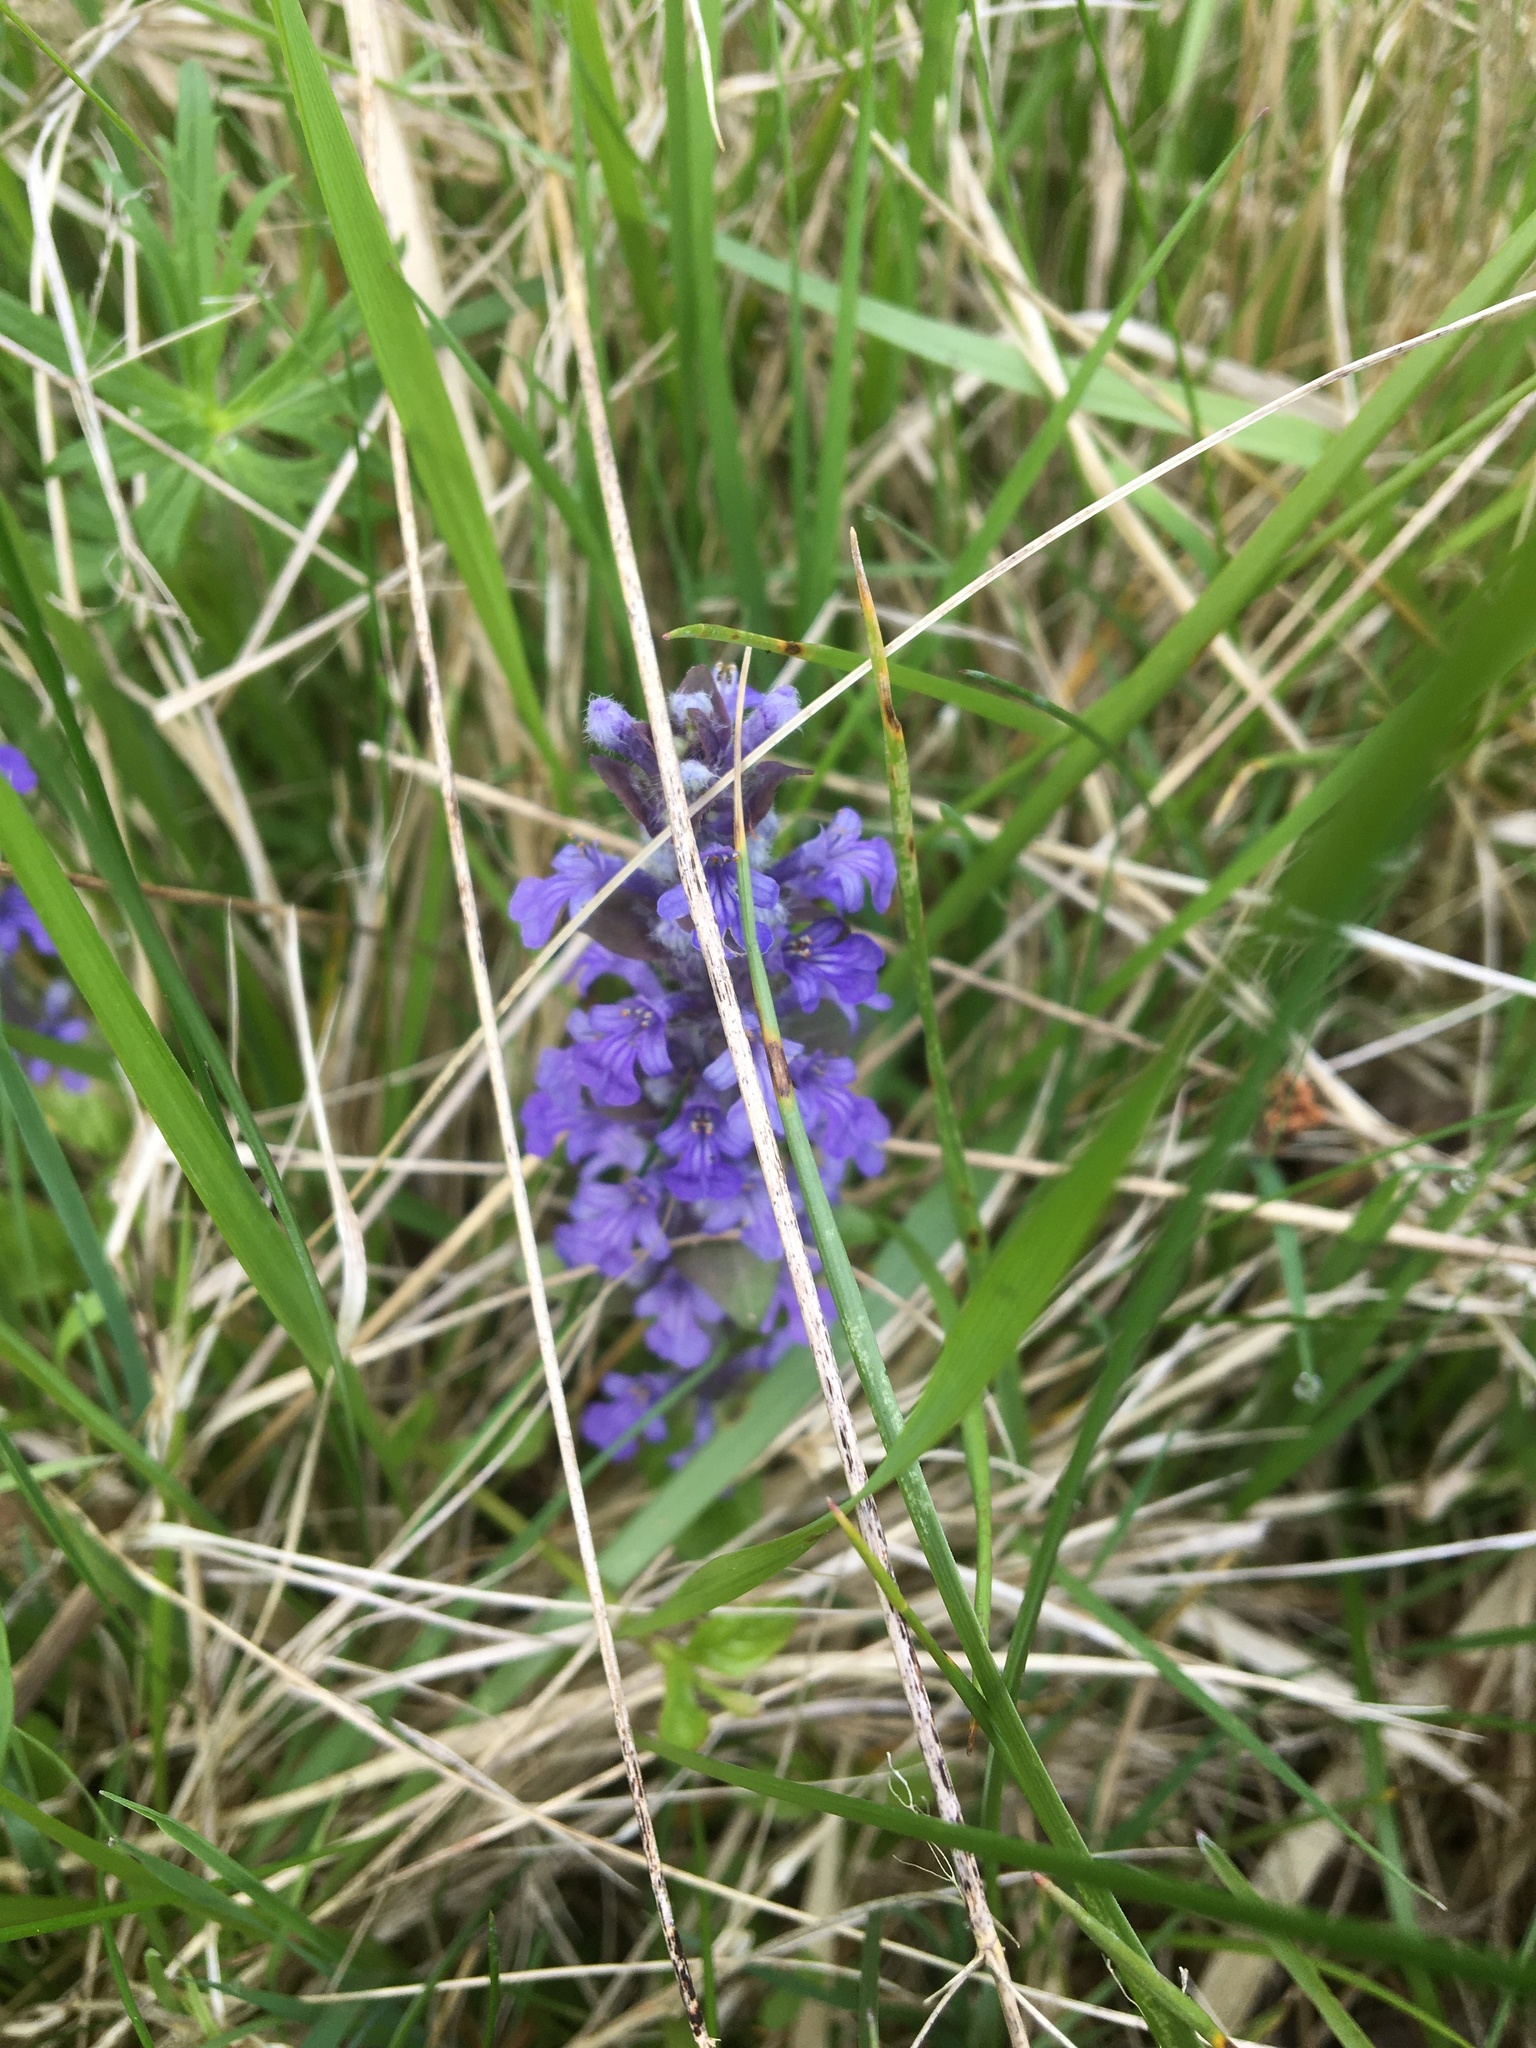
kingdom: Plantae
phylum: Tracheophyta
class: Magnoliopsida
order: Lamiales
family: Lamiaceae
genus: Ajuga
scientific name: Ajuga reptans
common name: Bugle
